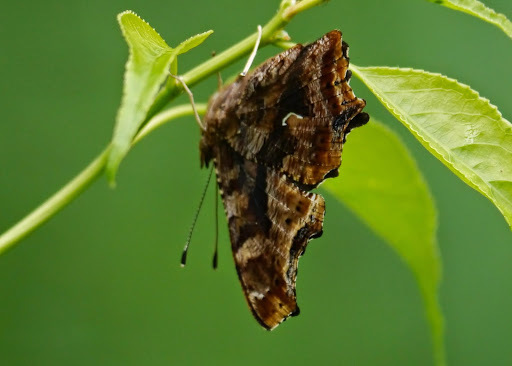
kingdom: Animalia
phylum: Arthropoda
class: Insecta
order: Lepidoptera
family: Nymphalidae
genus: Polygonia
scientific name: Polygonia comma
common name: Eastern comma
